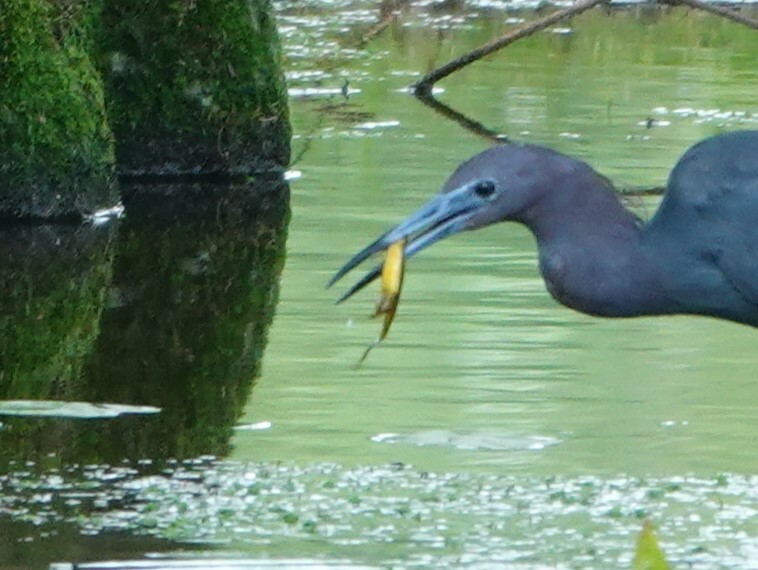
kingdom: Animalia
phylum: Chordata
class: Amphibia
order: Caudata
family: Salamandridae
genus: Notophthalmus
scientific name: Notophthalmus viridescens
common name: Eastern newt
